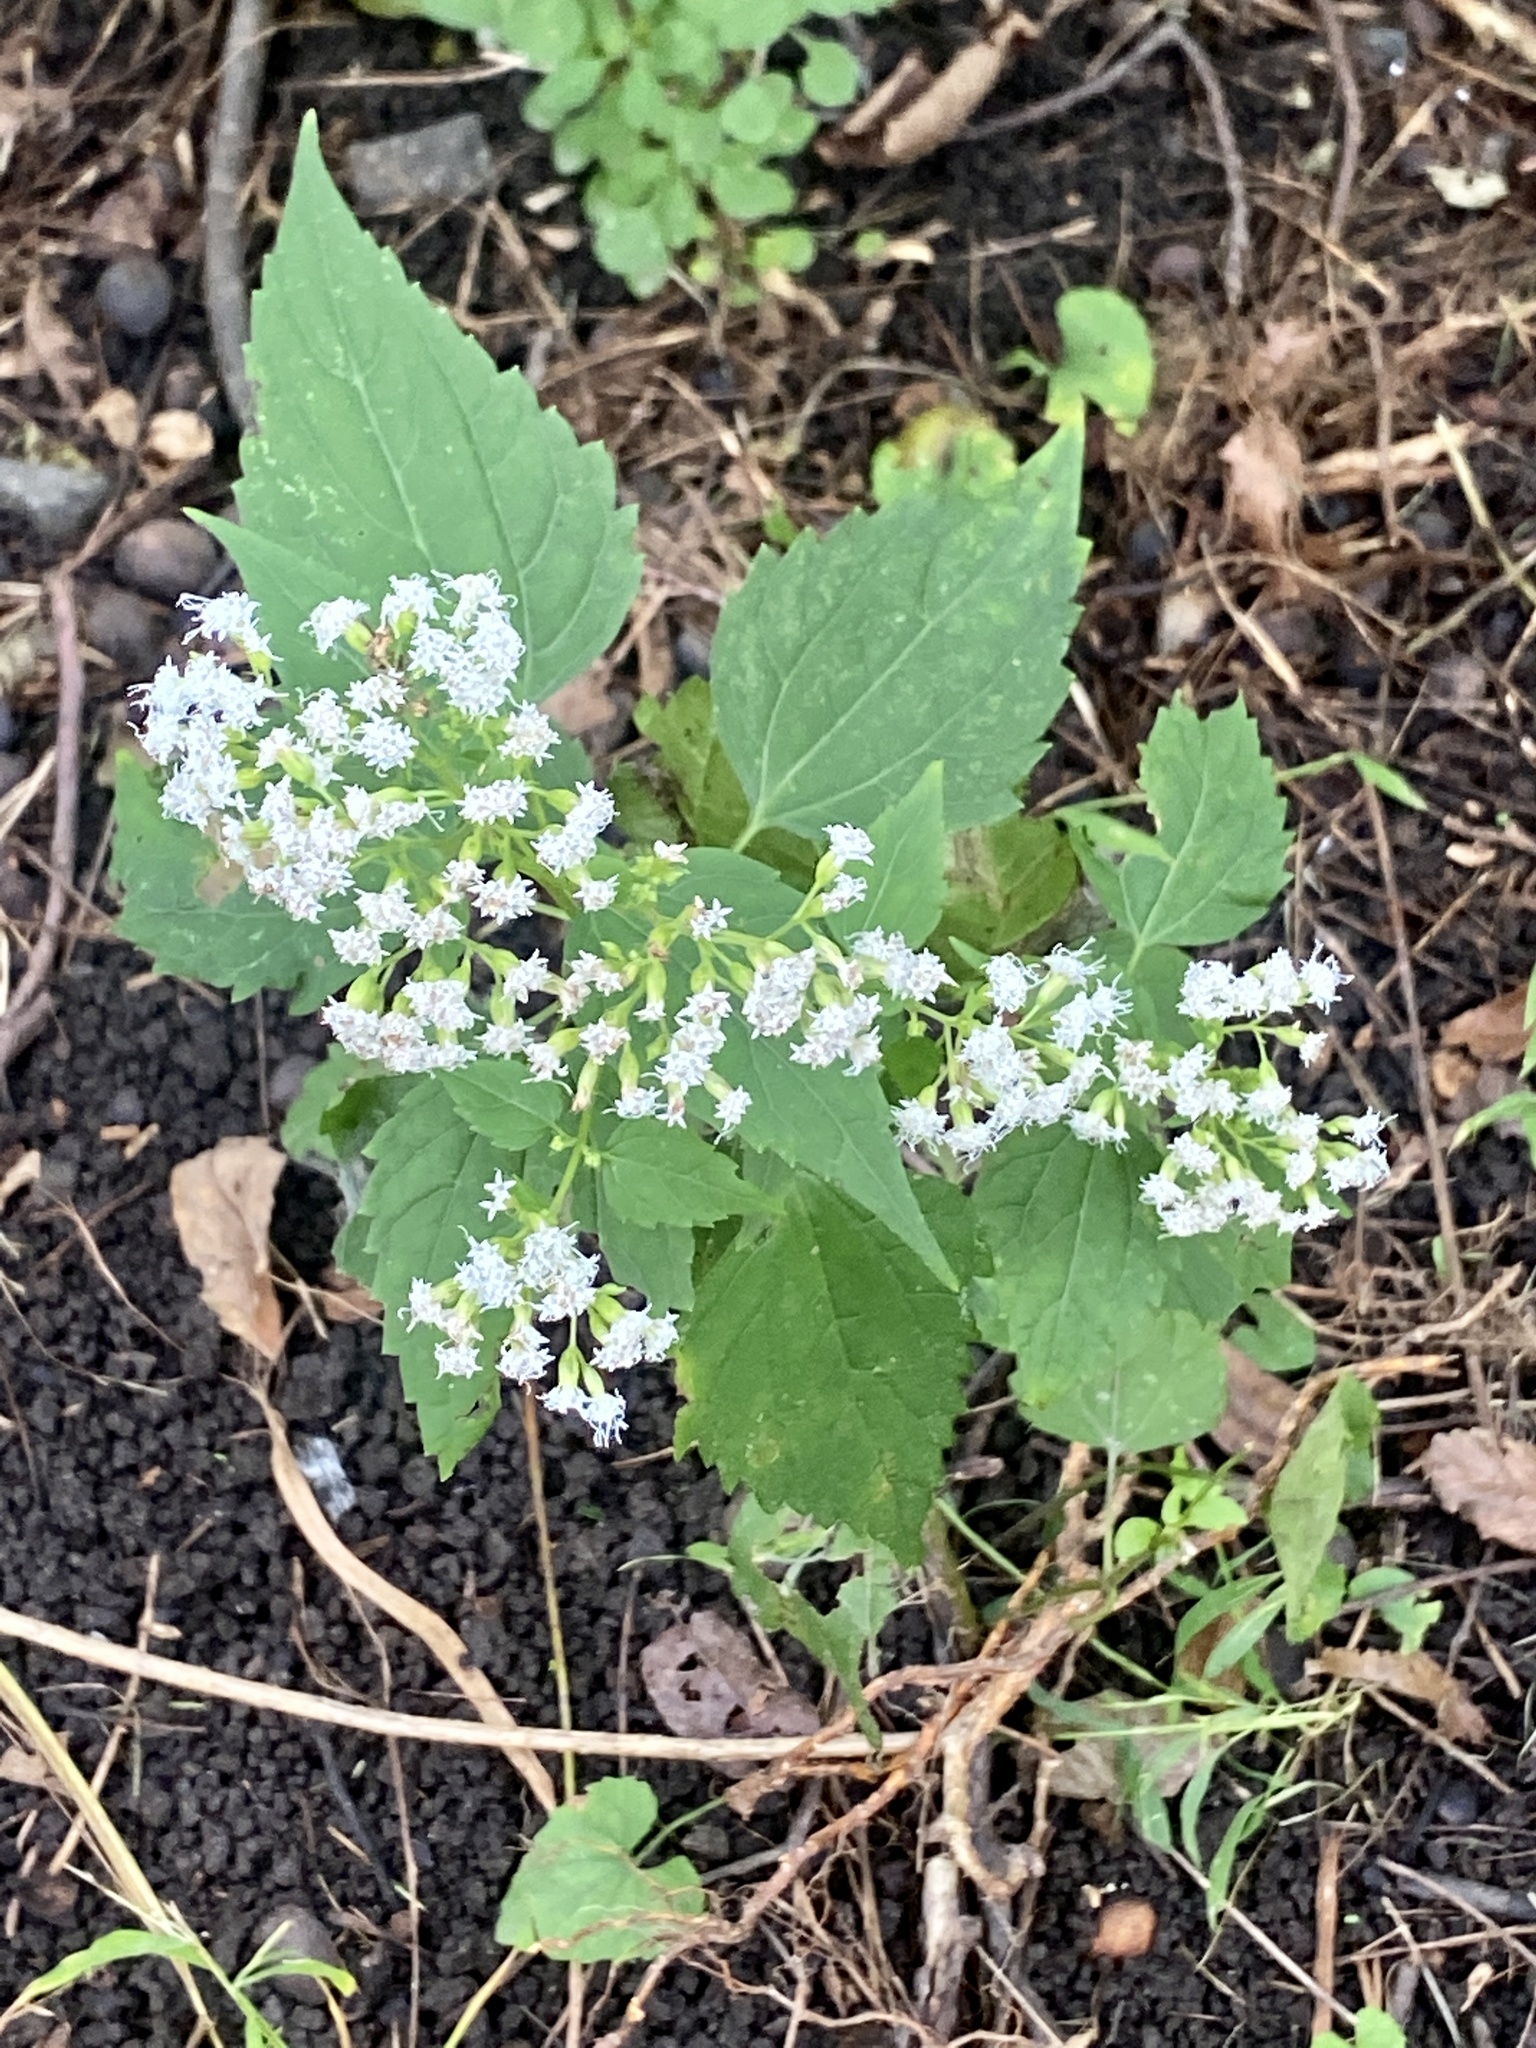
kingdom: Plantae
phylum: Tracheophyta
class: Magnoliopsida
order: Asterales
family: Asteraceae
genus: Ageratina
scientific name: Ageratina altissima
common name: White snakeroot
